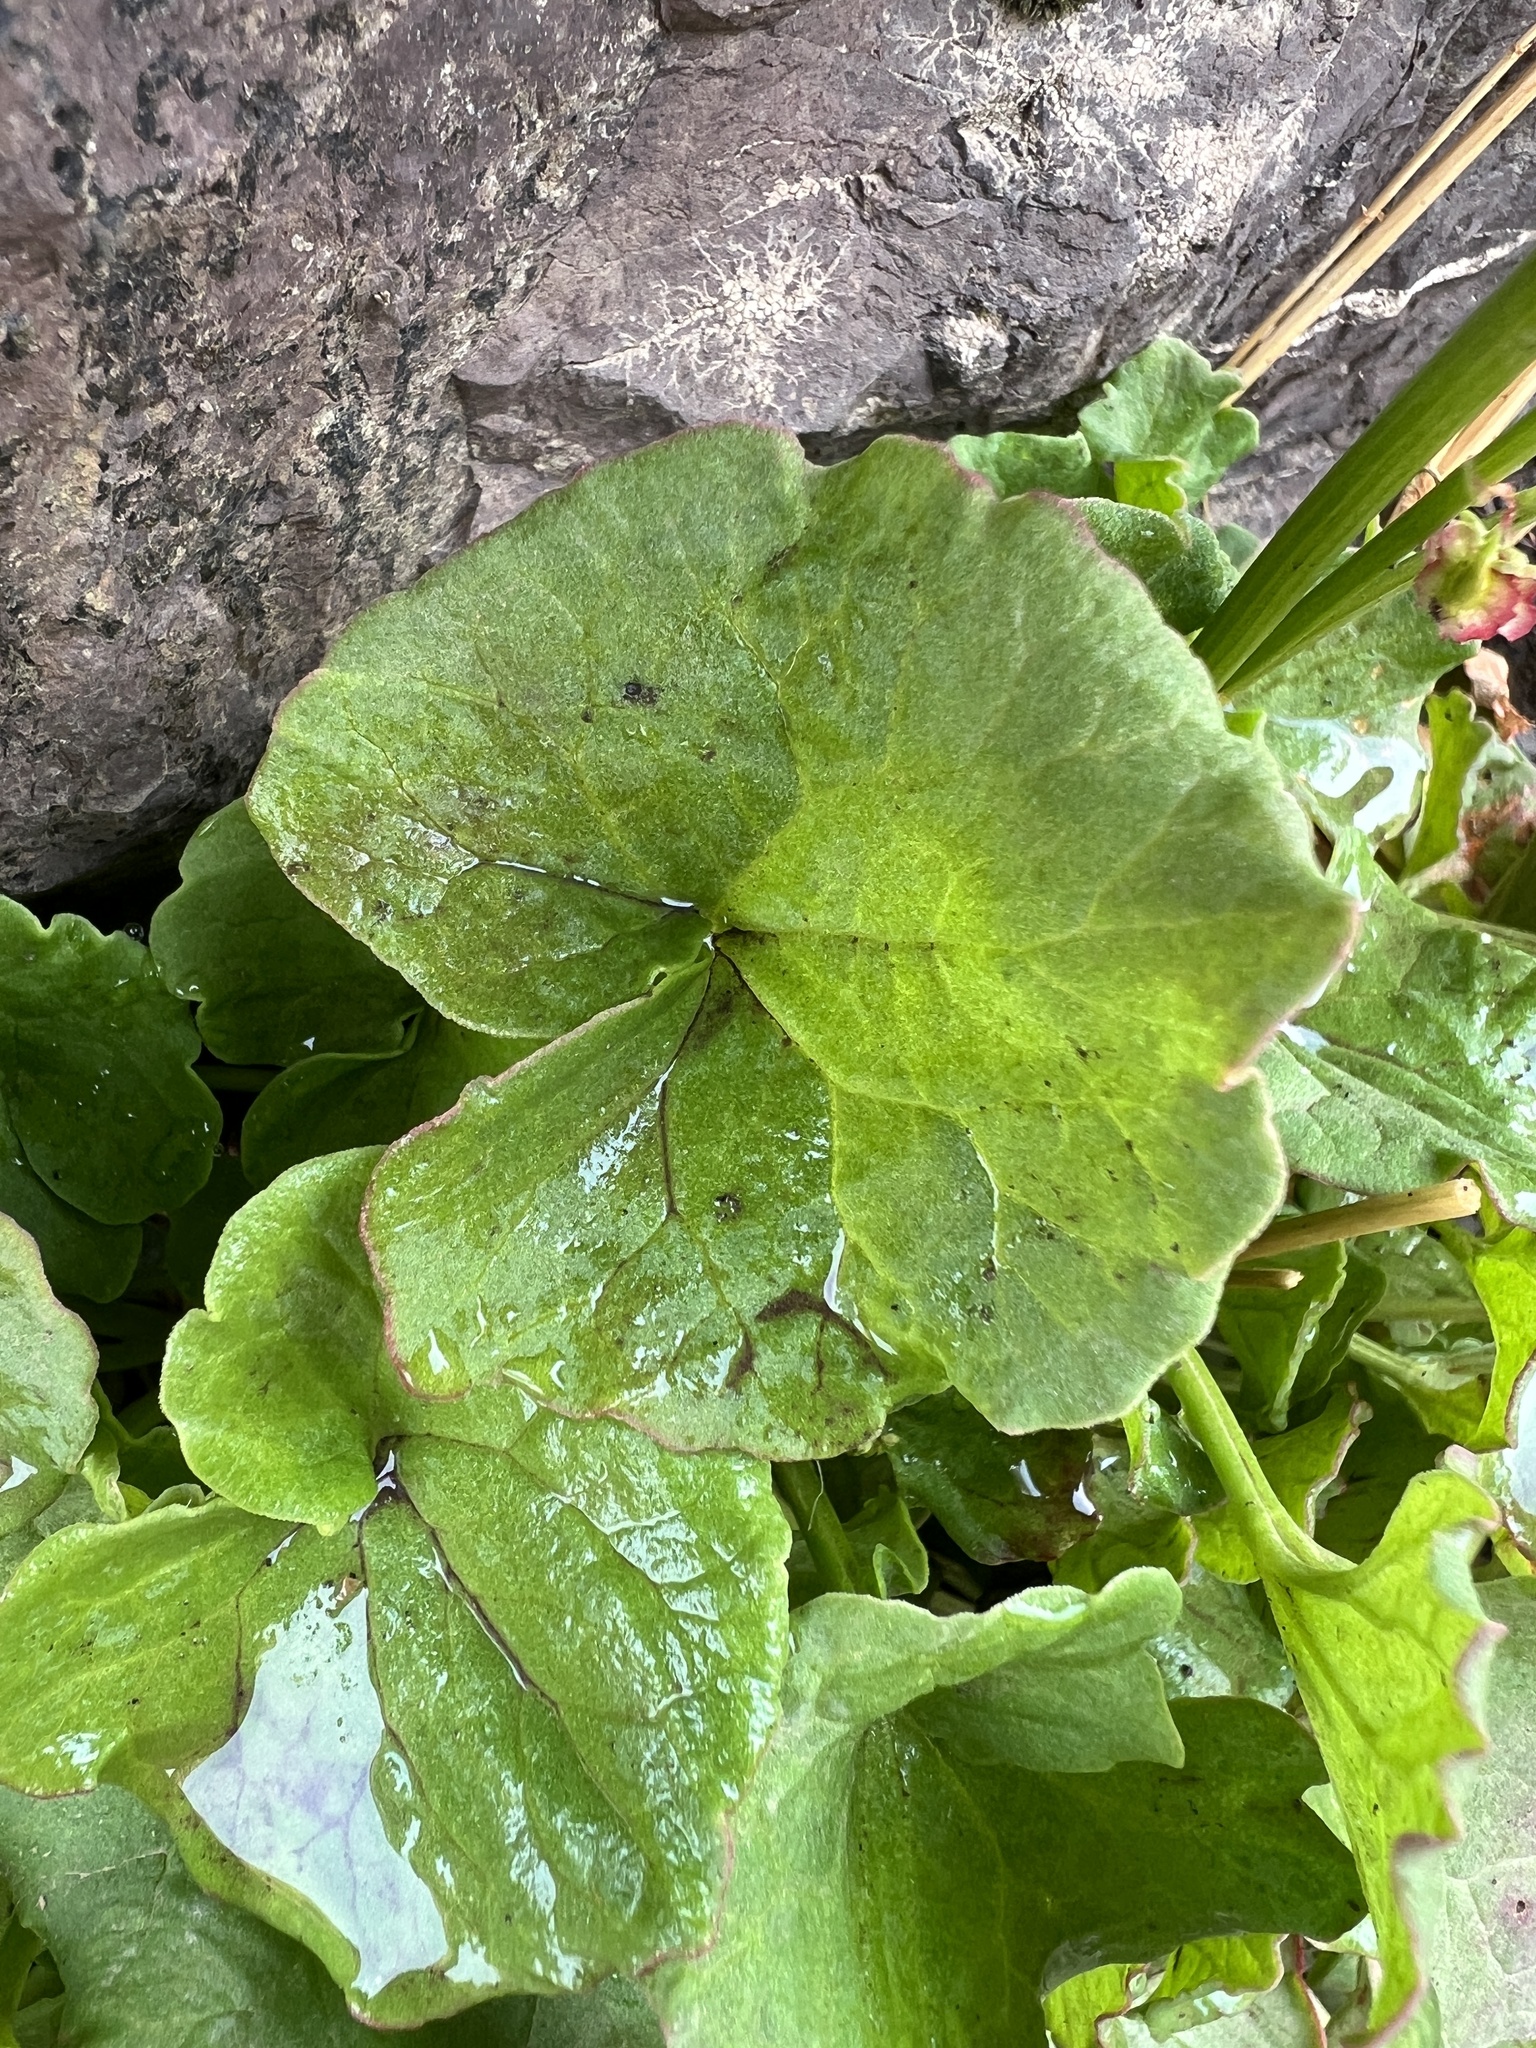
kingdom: Plantae
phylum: Tracheophyta
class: Magnoliopsida
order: Caryophyllales
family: Polygonaceae
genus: Oxyria
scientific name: Oxyria digyna
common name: Alpine mountain-sorrel
